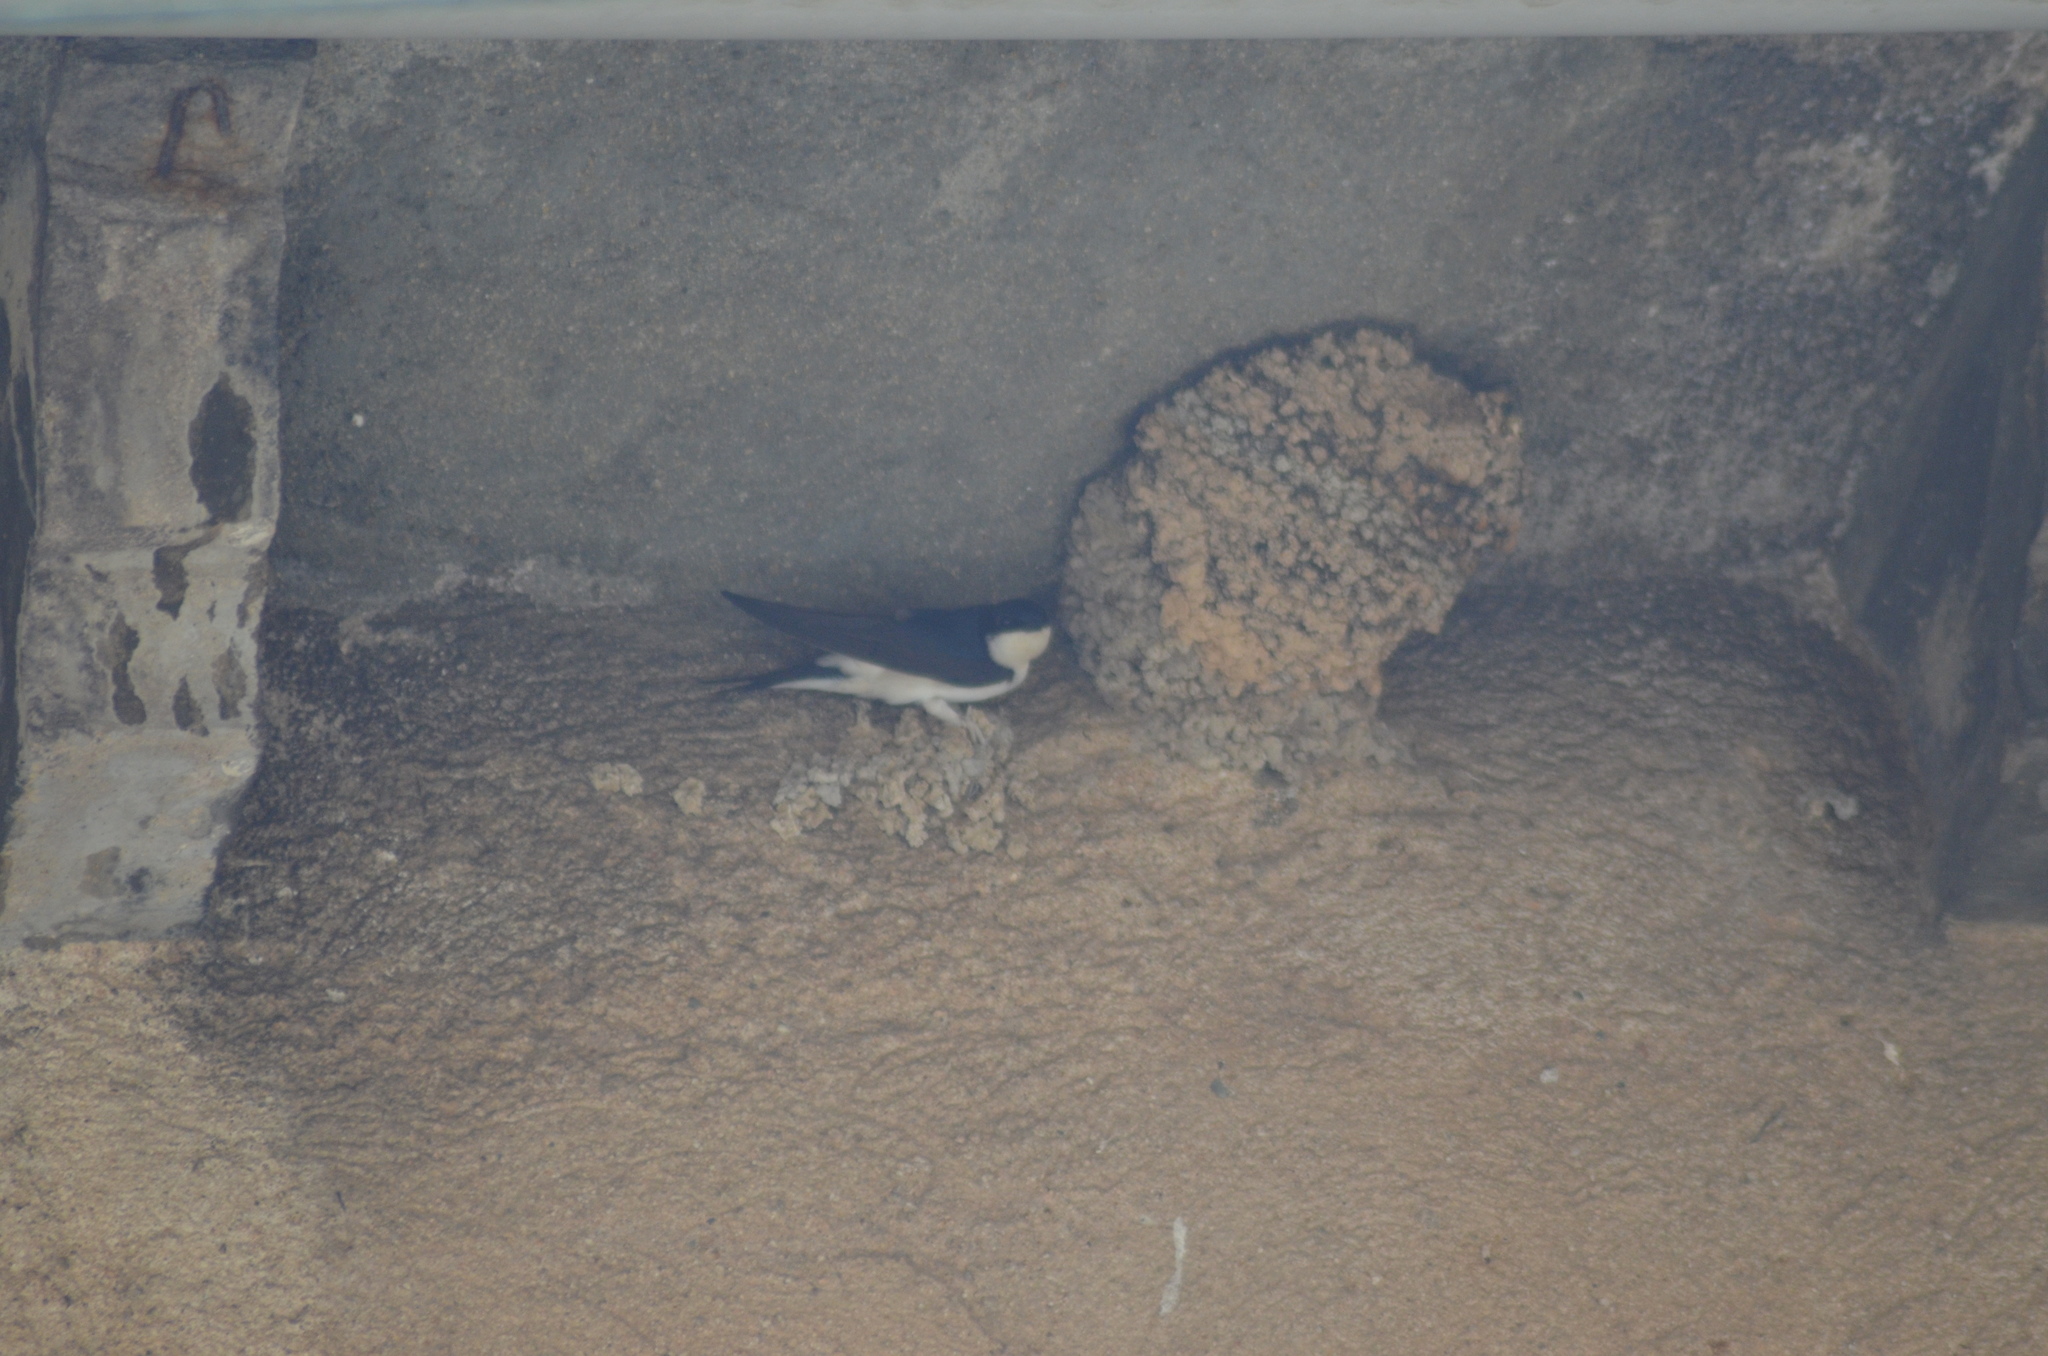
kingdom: Animalia
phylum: Chordata
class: Aves
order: Passeriformes
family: Hirundinidae
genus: Delichon
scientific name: Delichon urbicum
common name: Common house martin
